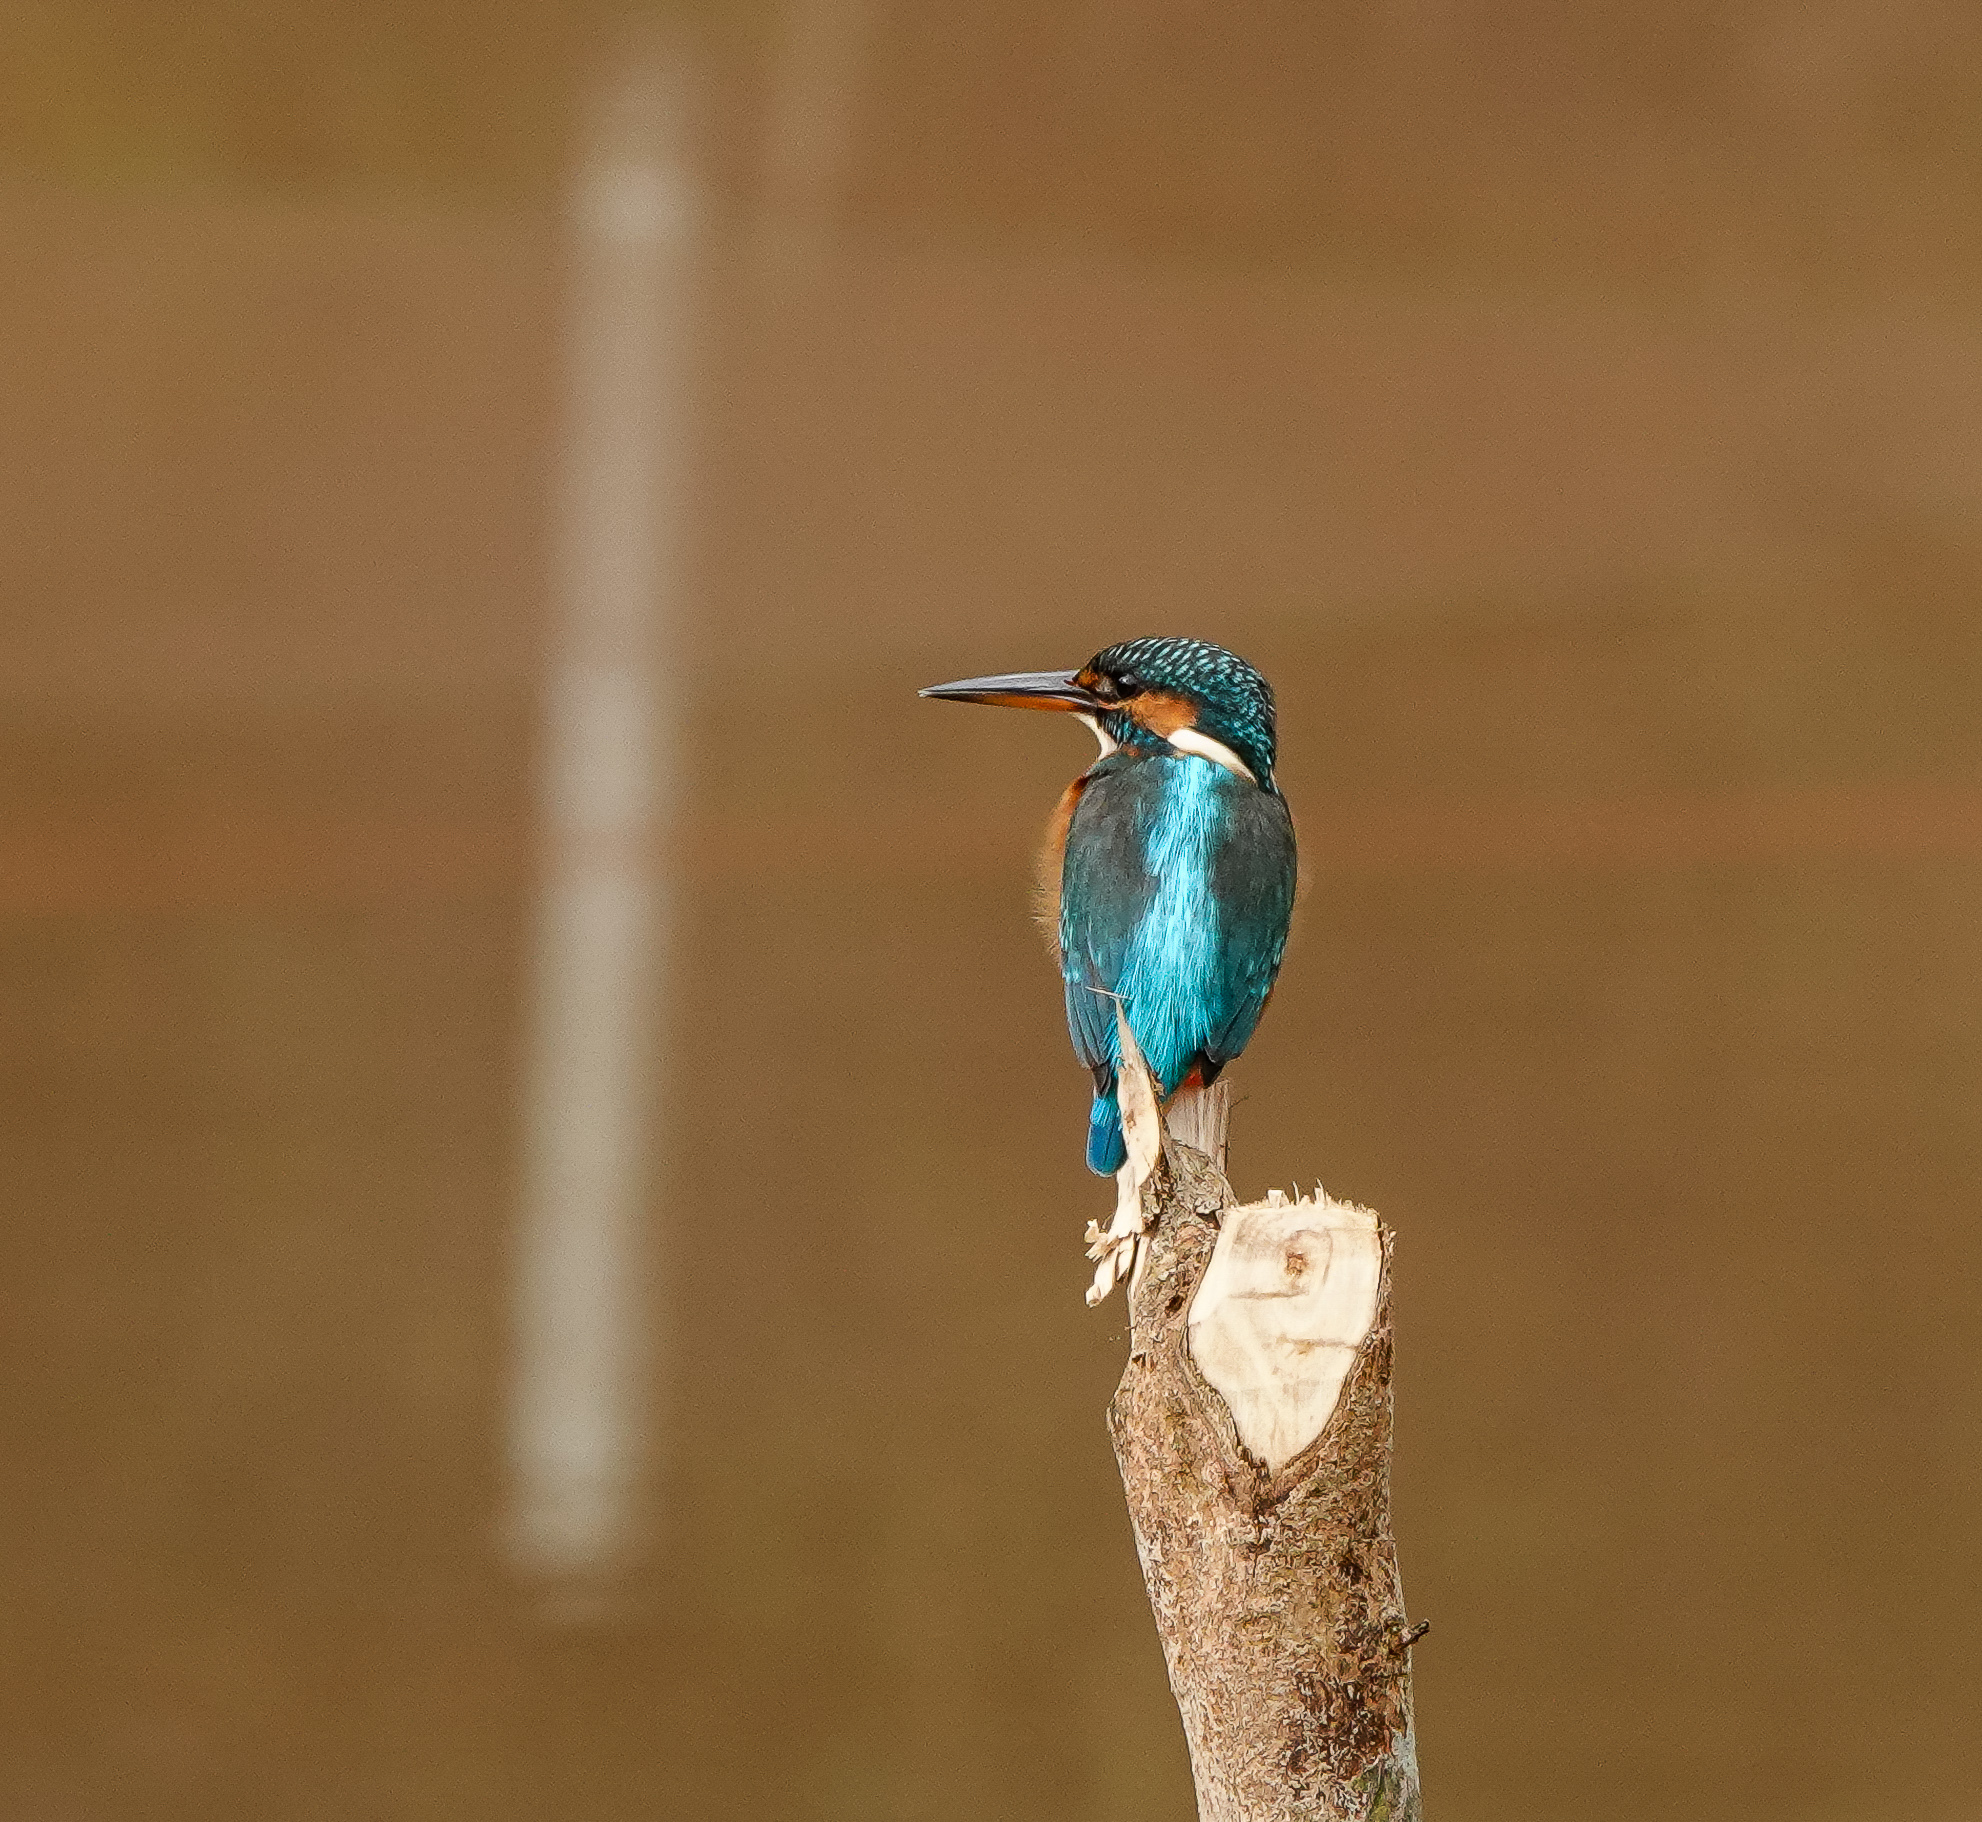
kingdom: Animalia
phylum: Chordata
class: Aves
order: Coraciiformes
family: Alcedinidae
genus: Alcedo
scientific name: Alcedo atthis
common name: Common kingfisher
